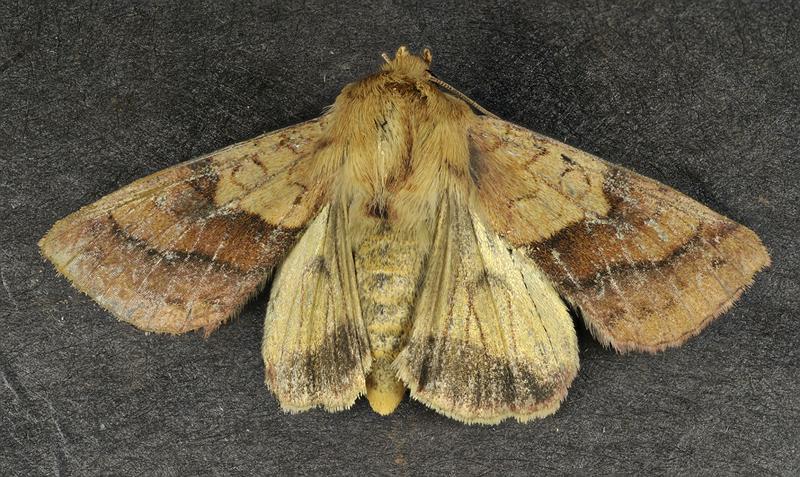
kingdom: Animalia
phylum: Arthropoda
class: Insecta
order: Lepidoptera
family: Noctuidae
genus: Pyrrhia
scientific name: Pyrrhia exprimens
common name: Purple-lined sallow
